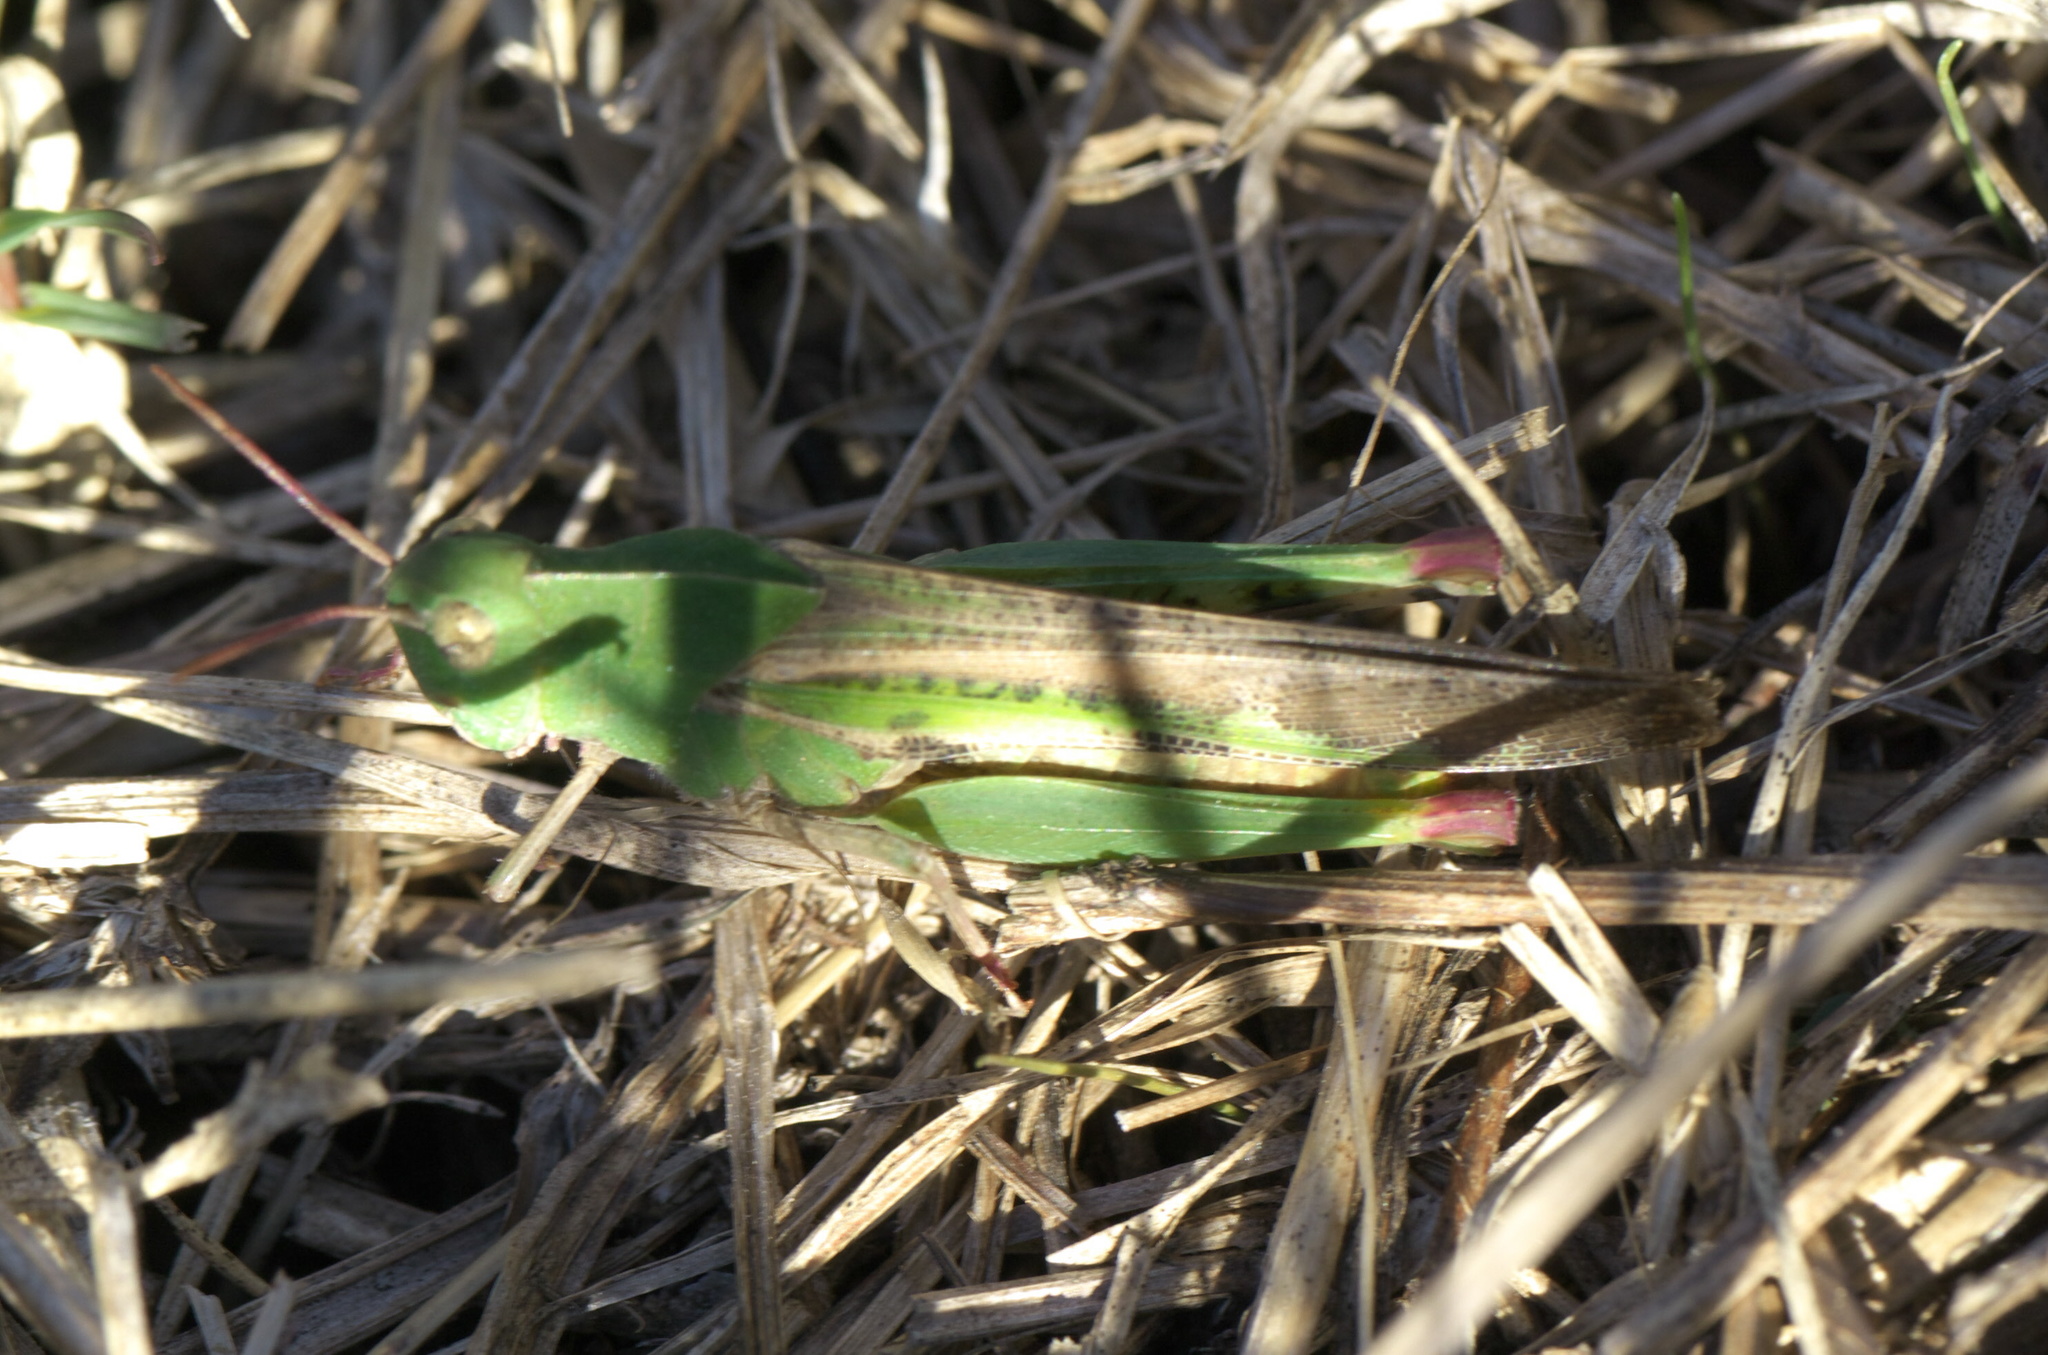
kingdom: Animalia
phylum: Arthropoda
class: Insecta
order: Orthoptera
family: Acrididae
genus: Chortophaga
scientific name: Chortophaga viridifasciata
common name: Green-striped grasshopper
